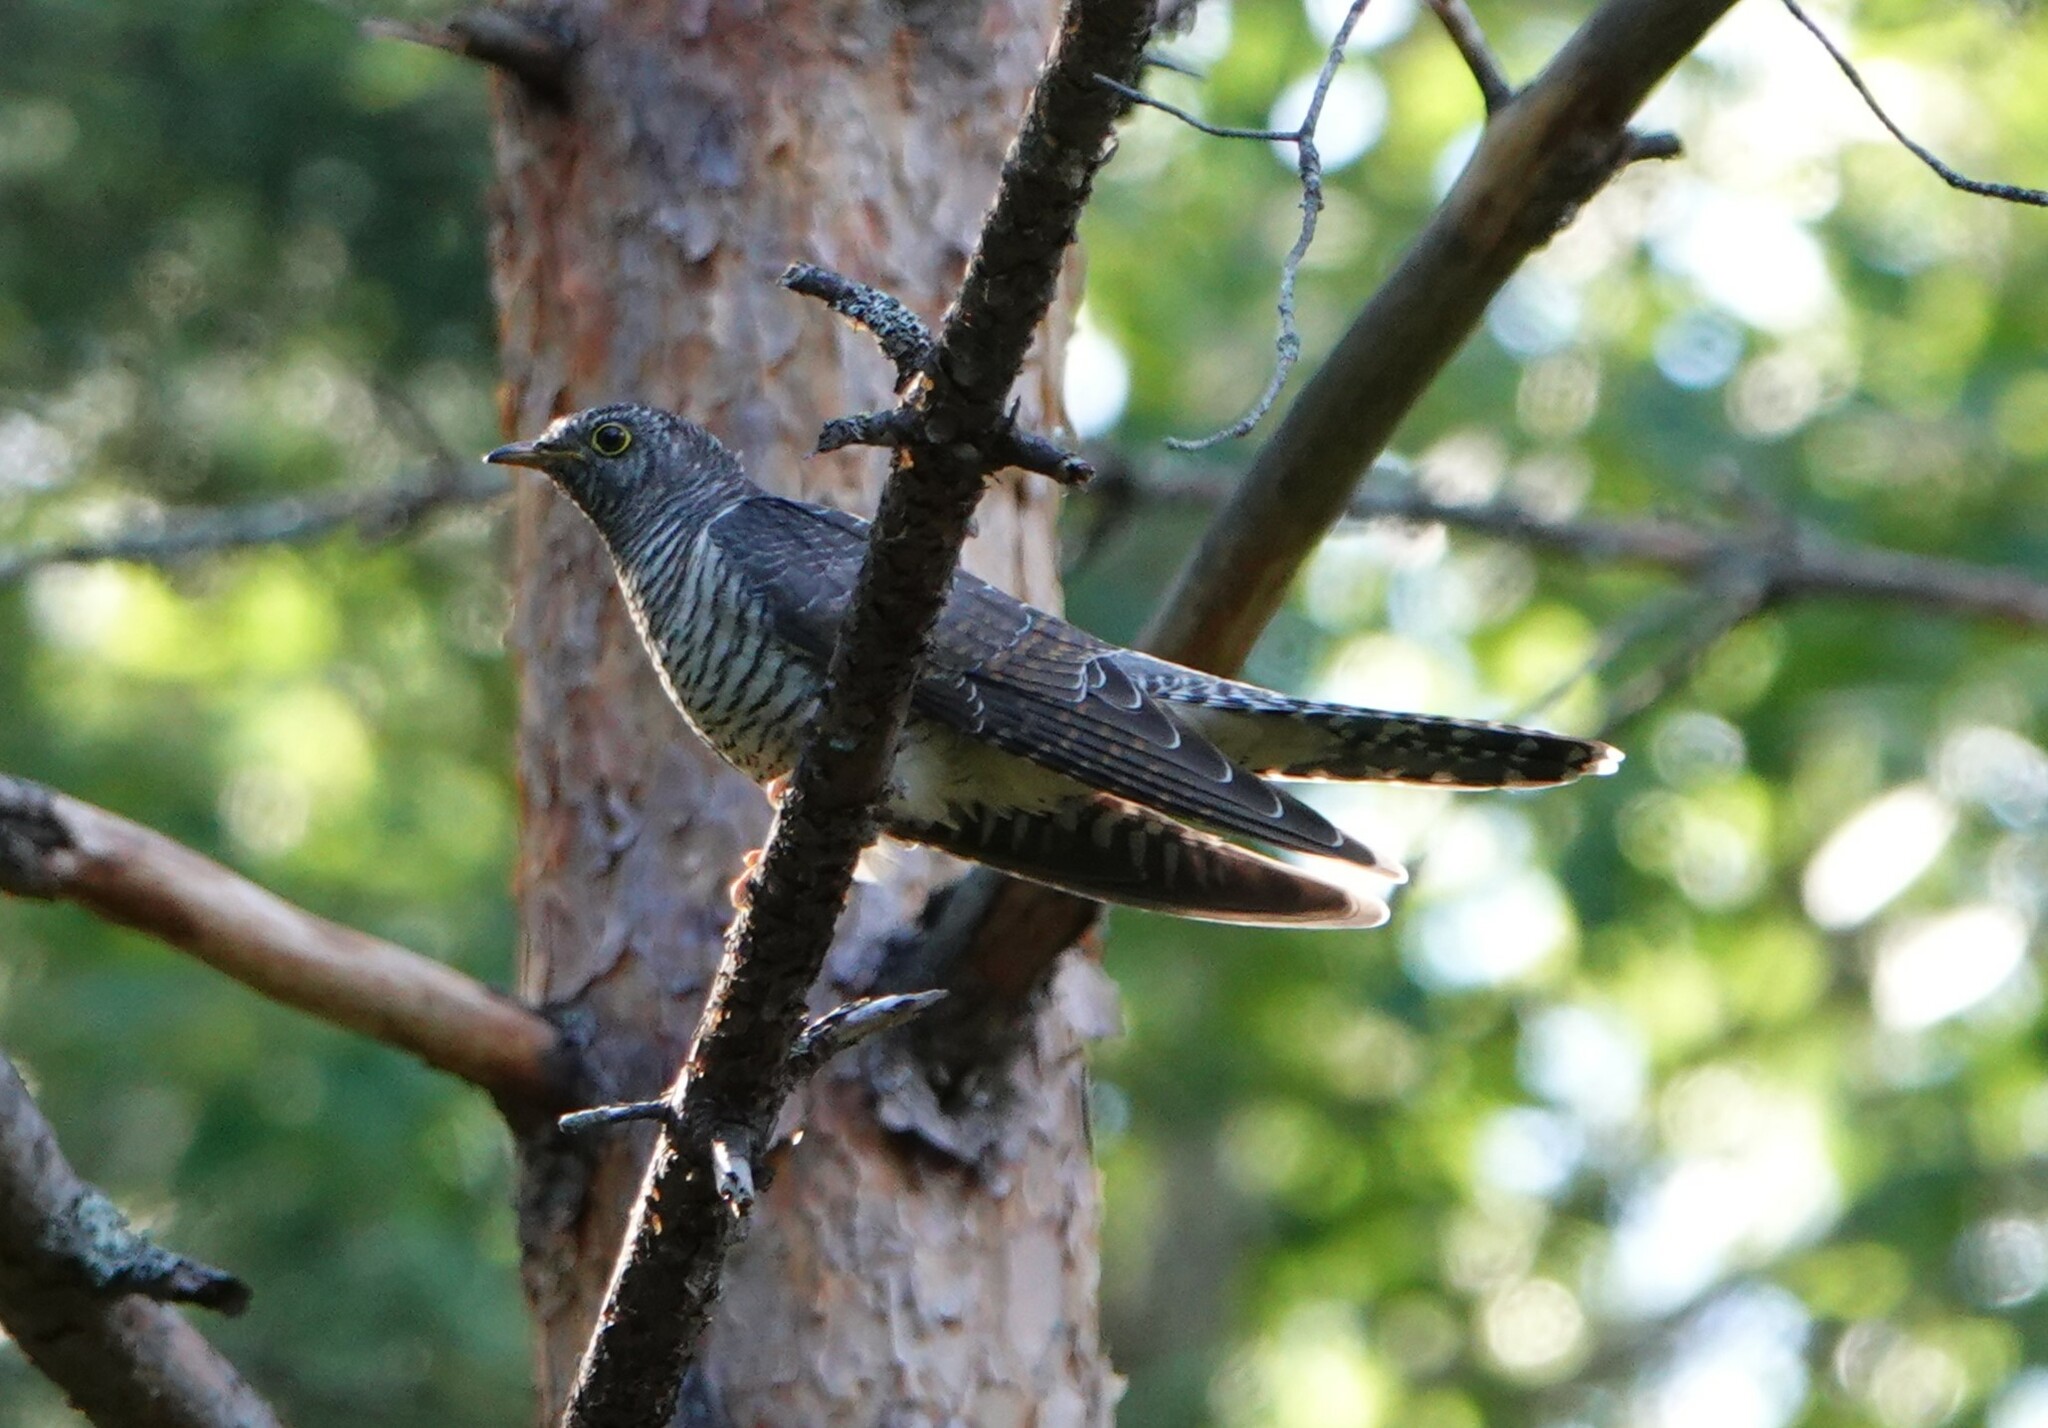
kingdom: Animalia
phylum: Chordata
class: Aves
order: Cuculiformes
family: Cuculidae
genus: Cuculus
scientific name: Cuculus canorus
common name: Common cuckoo
